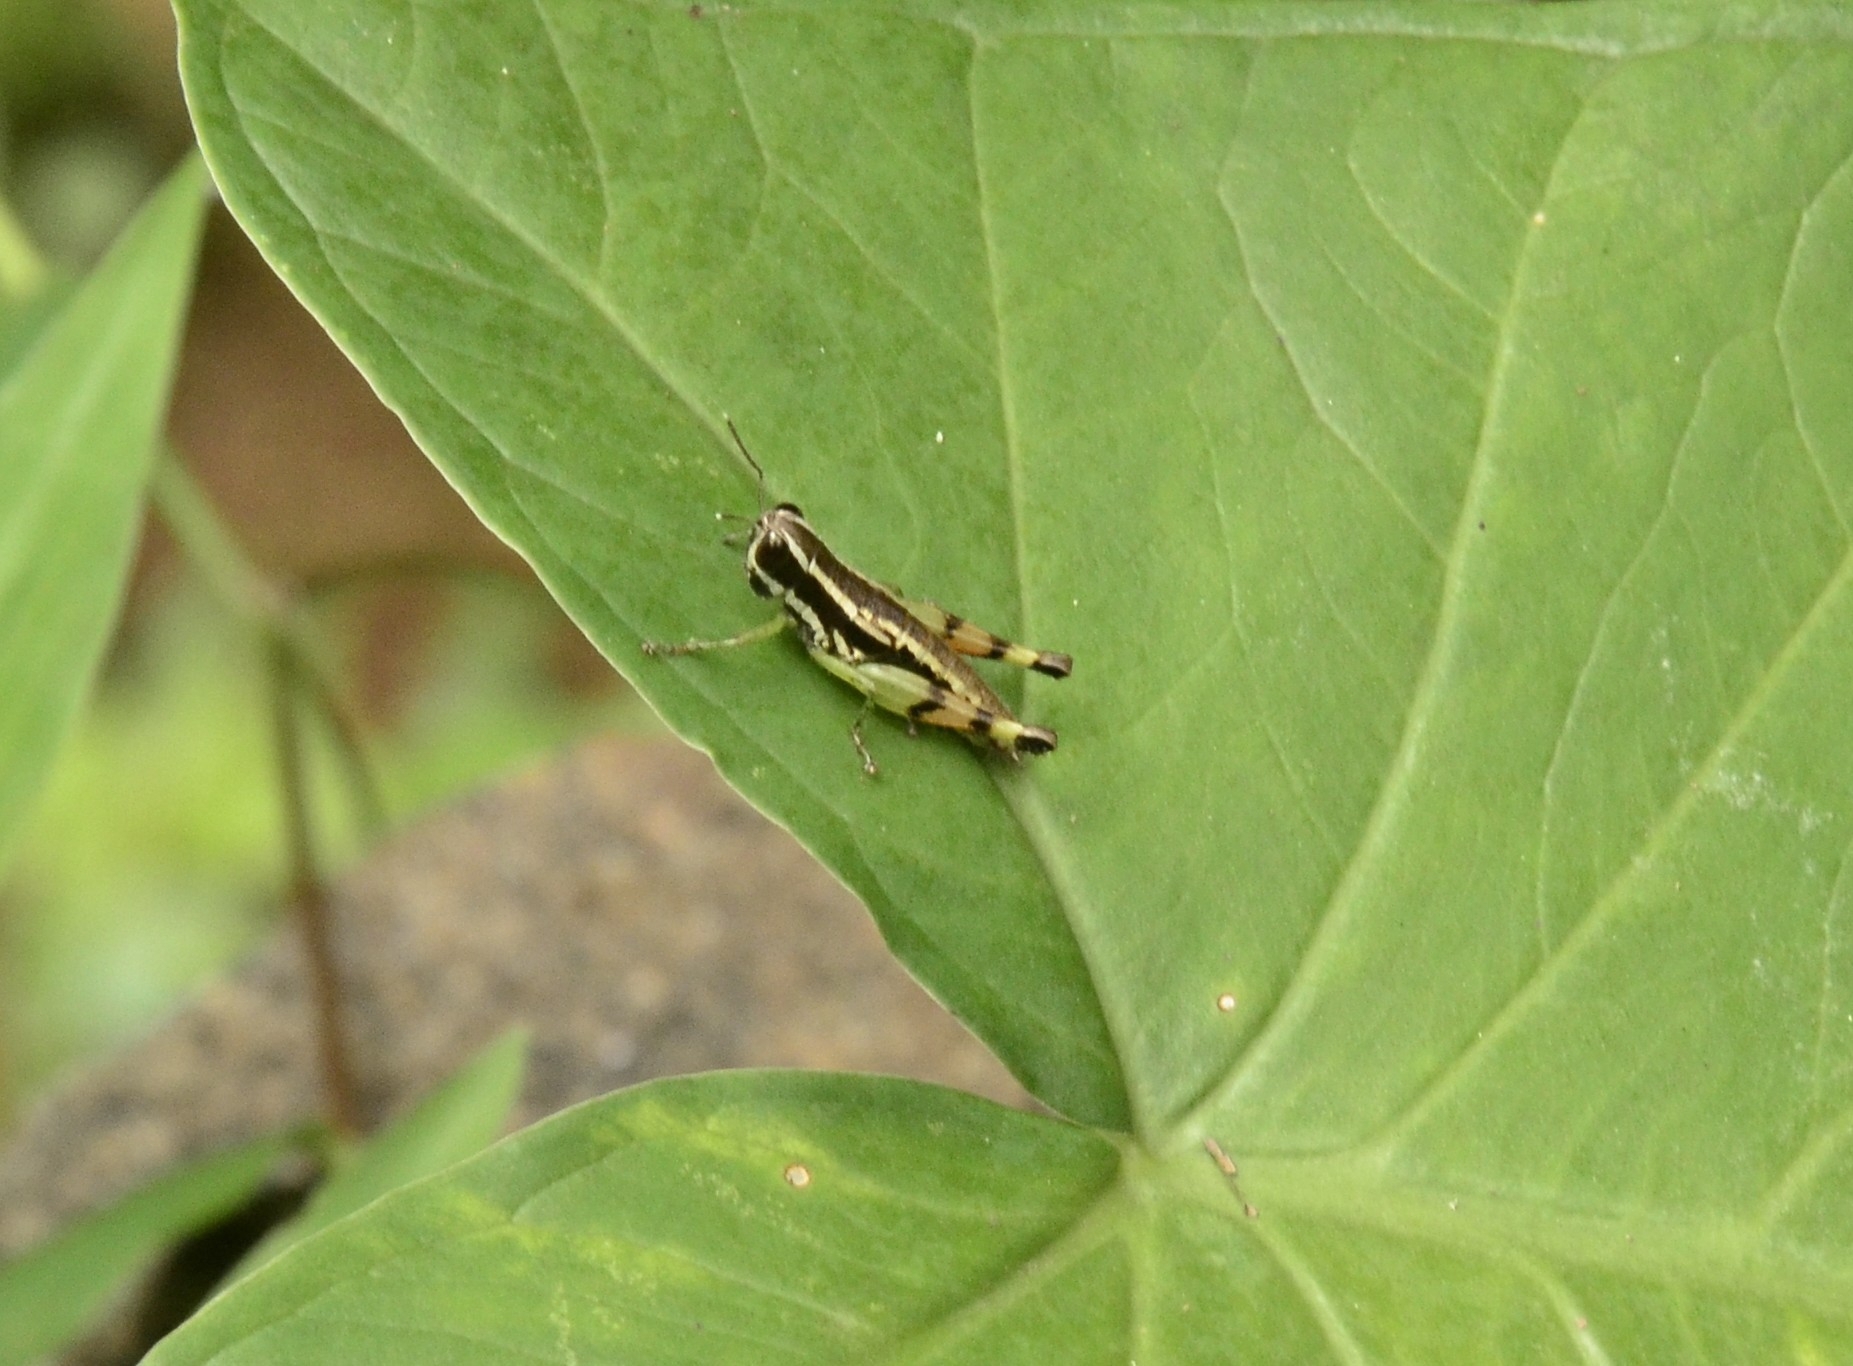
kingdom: Animalia
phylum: Arthropoda
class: Insecta
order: Orthoptera
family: Acrididae
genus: Chitaura
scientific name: Chitaura indica
